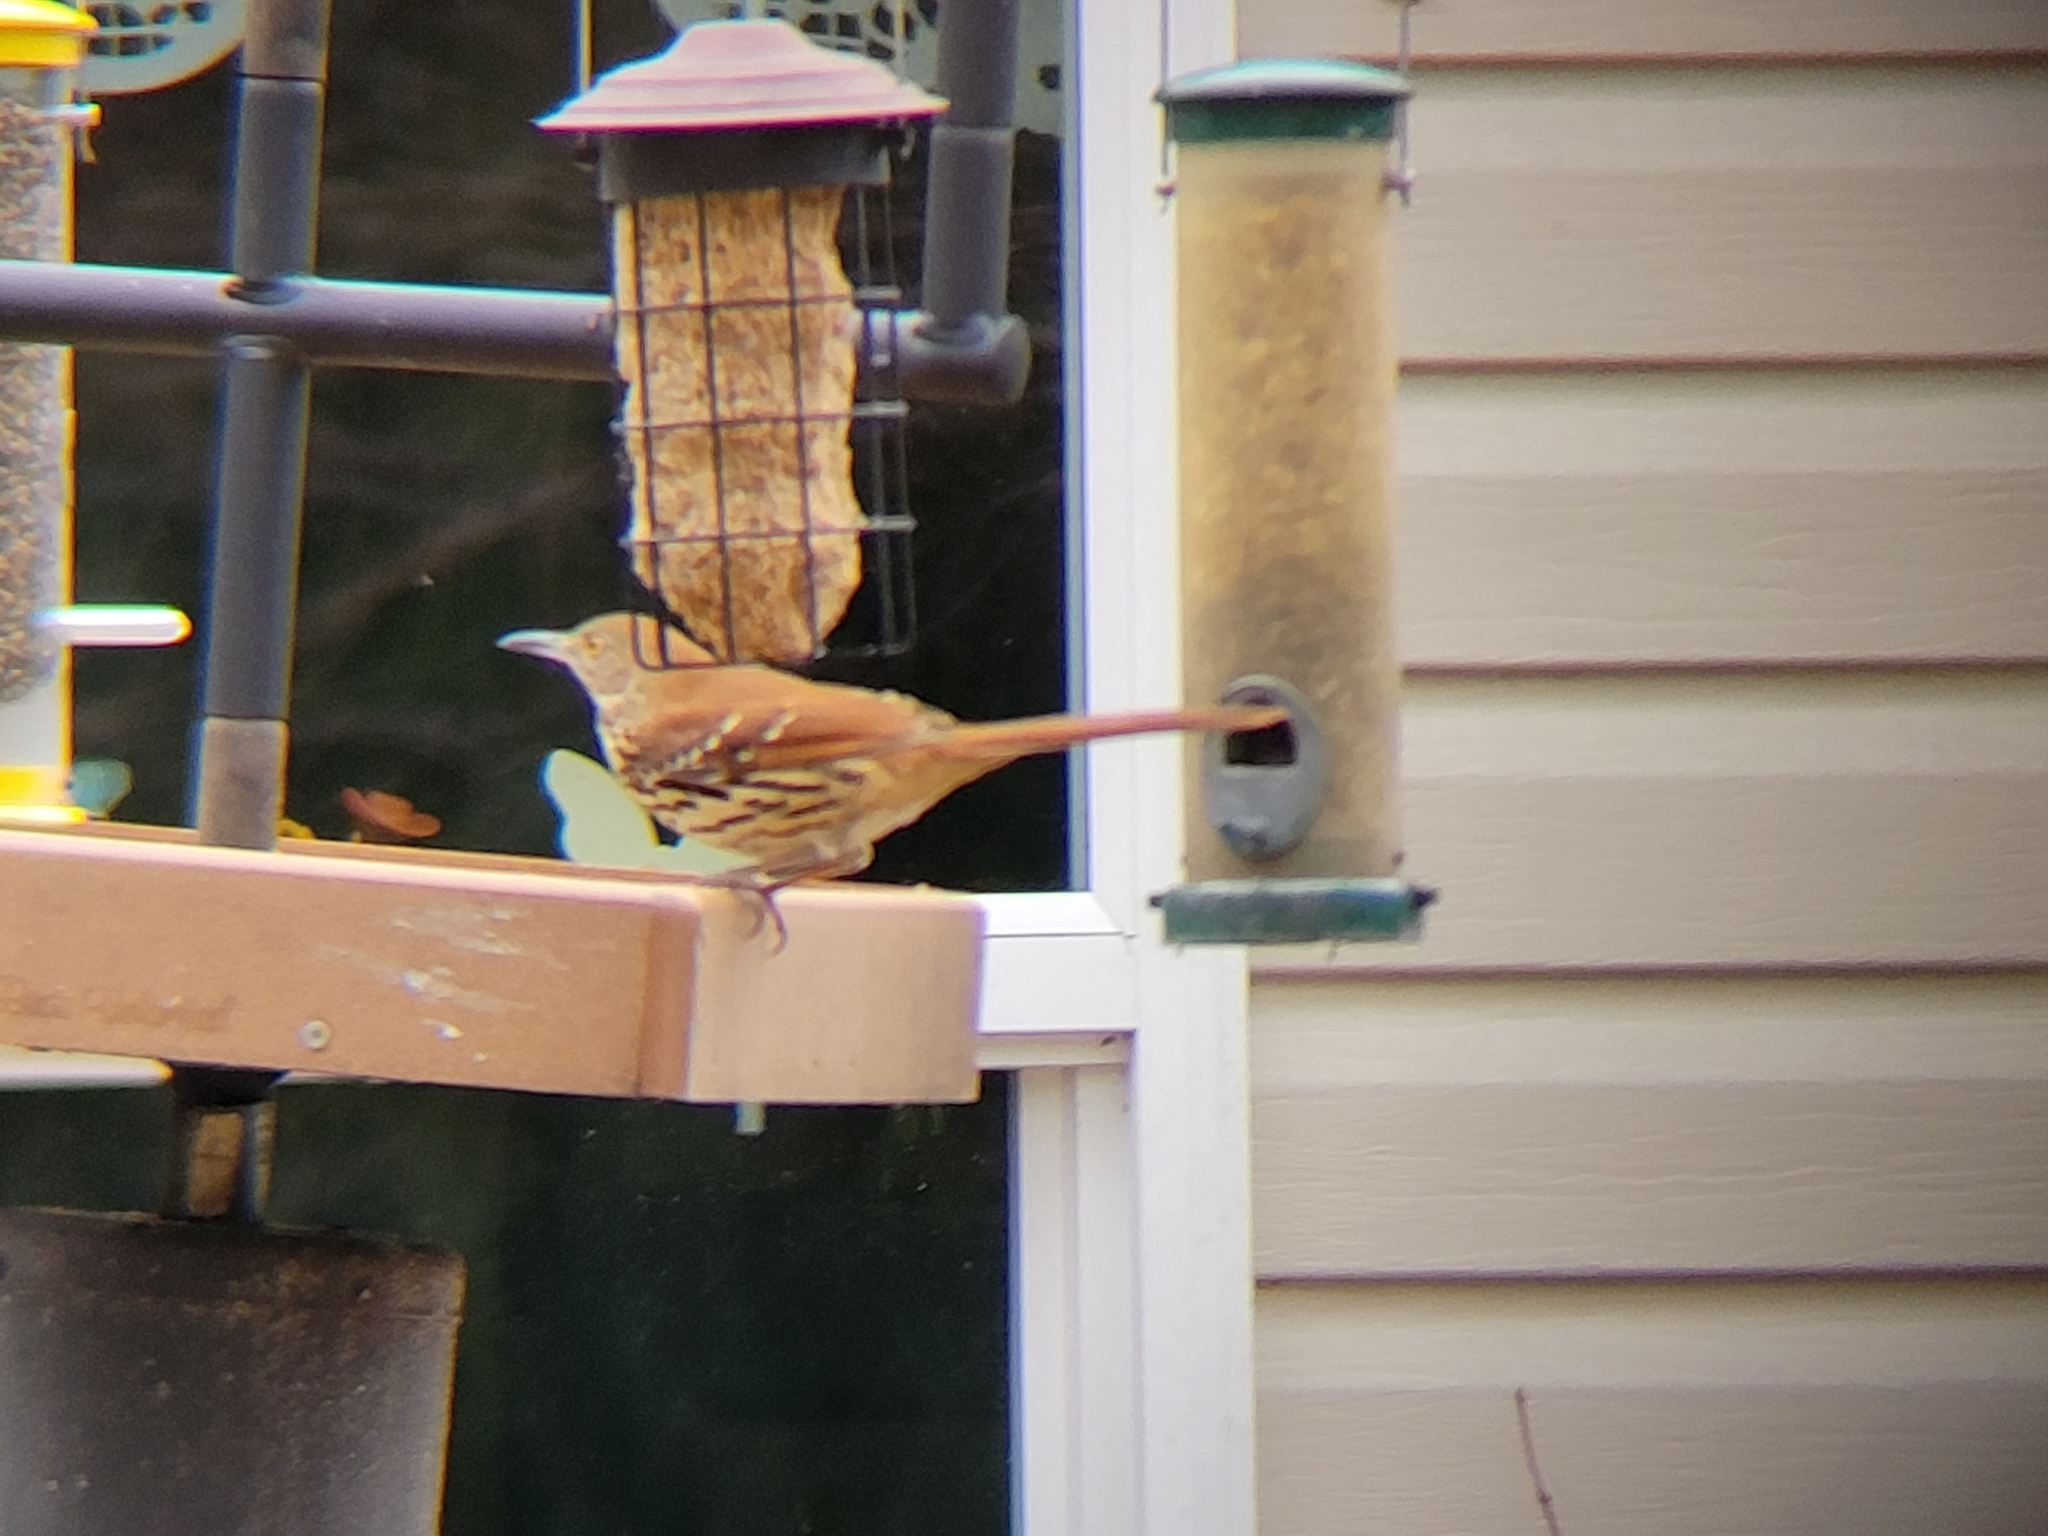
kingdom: Animalia
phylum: Chordata
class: Aves
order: Passeriformes
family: Mimidae
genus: Toxostoma
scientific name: Toxostoma rufum
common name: Brown thrasher
